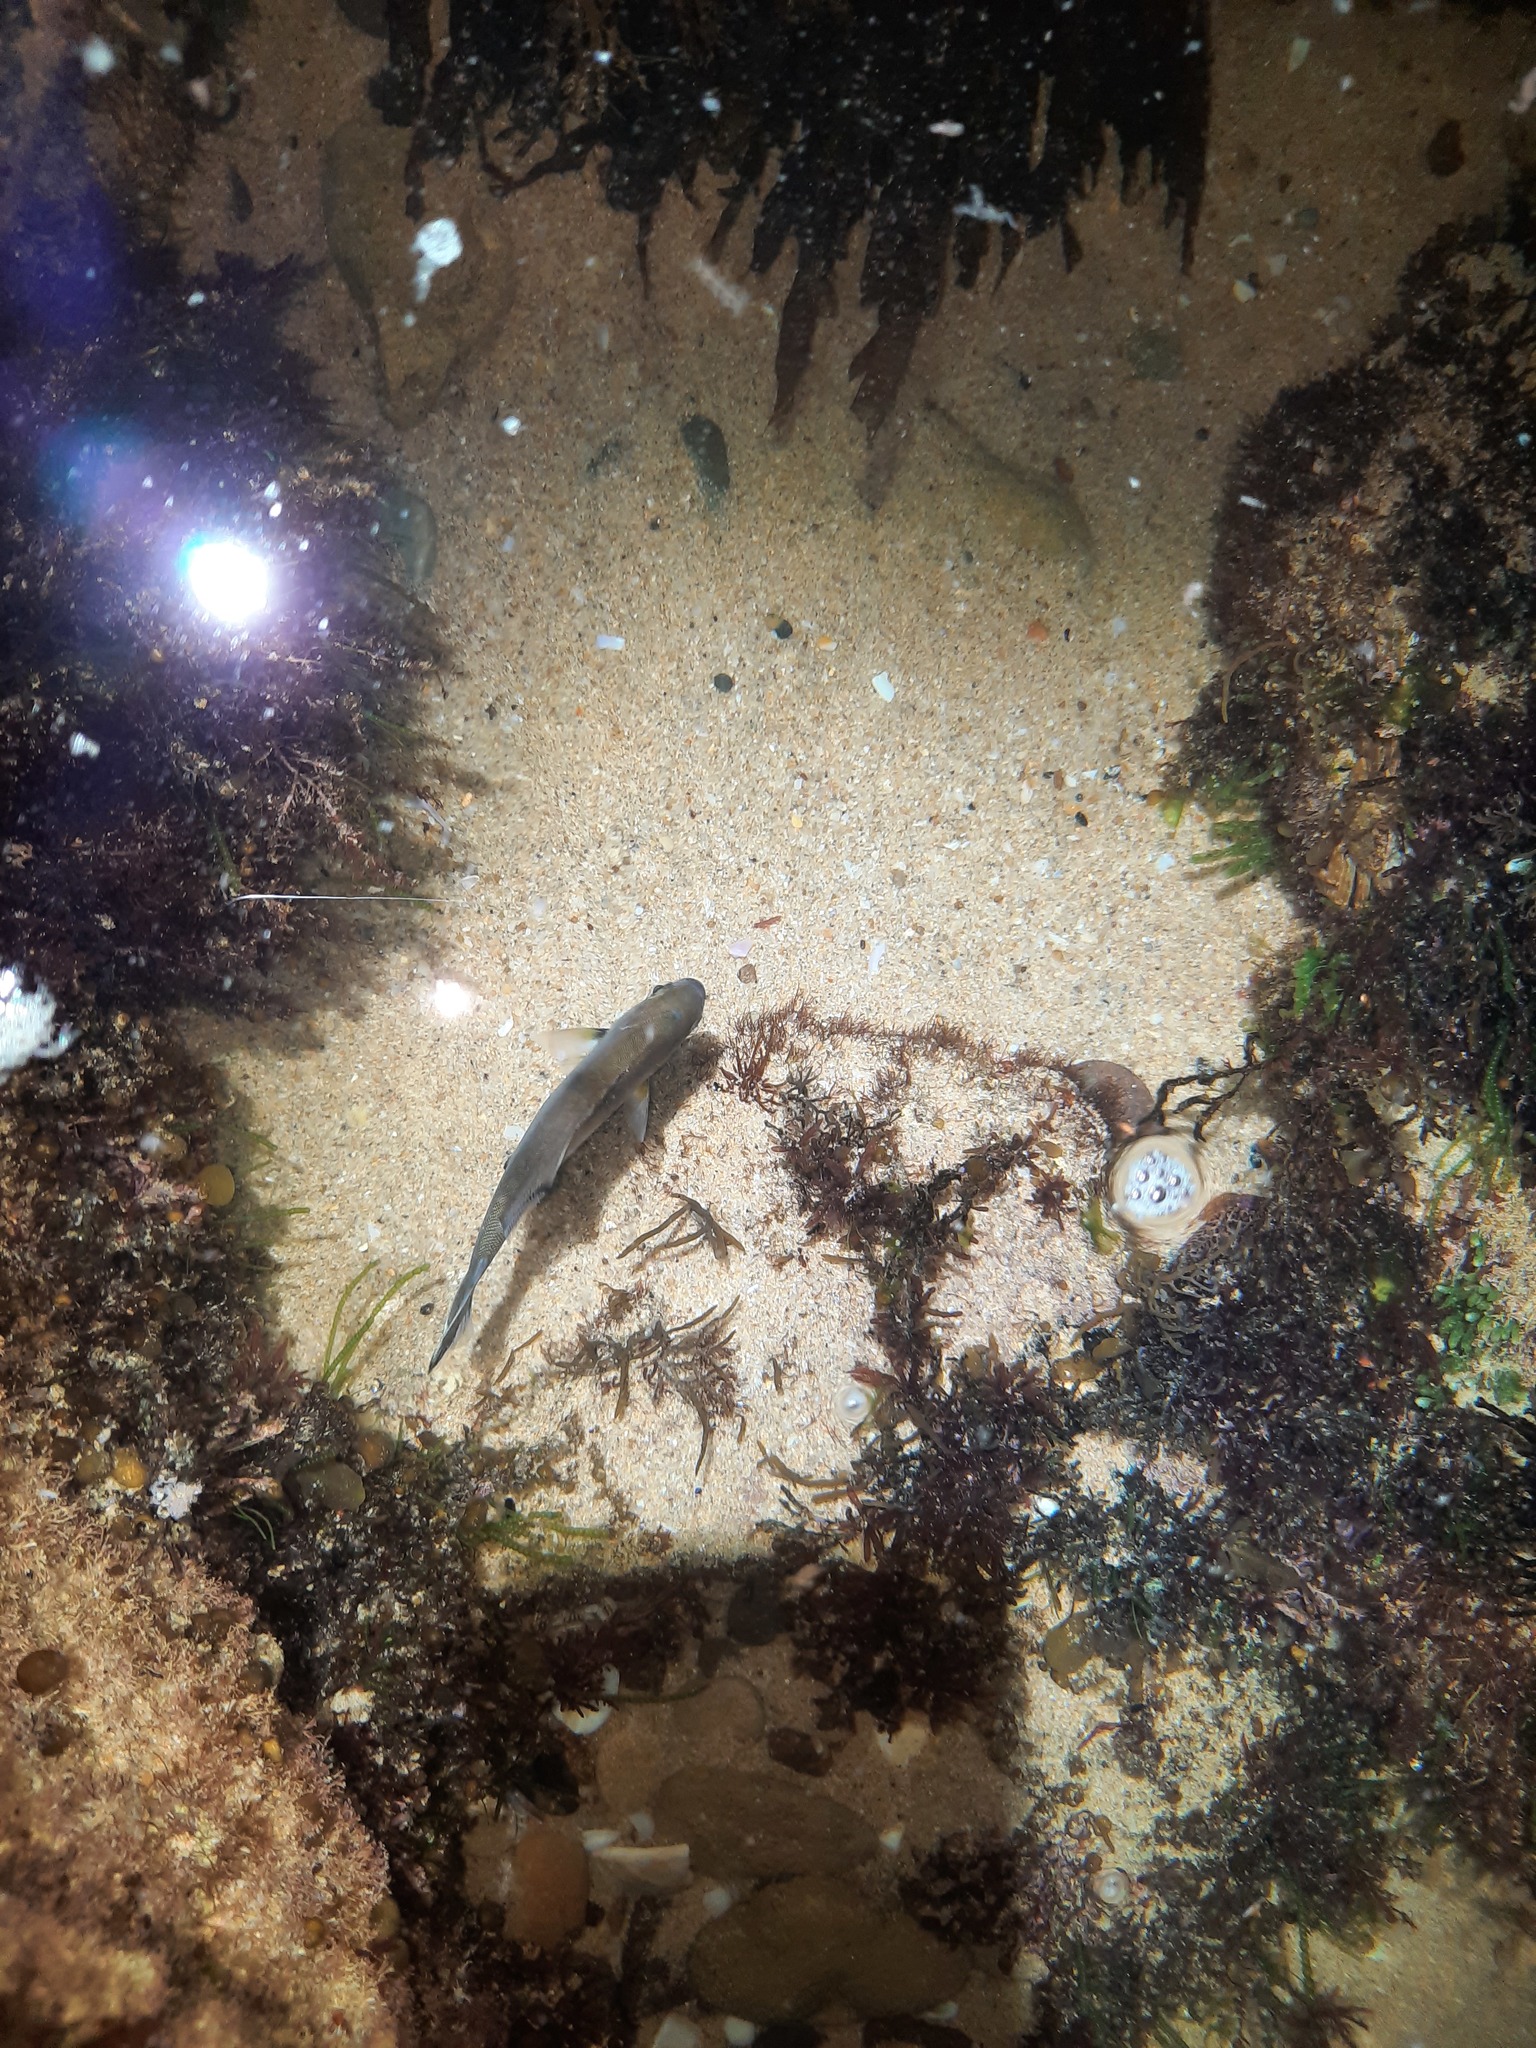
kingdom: Animalia
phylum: Chordata
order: Perciformes
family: Kyphosidae
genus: Scorpis
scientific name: Scorpis aequipinnis
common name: Sea sweep
